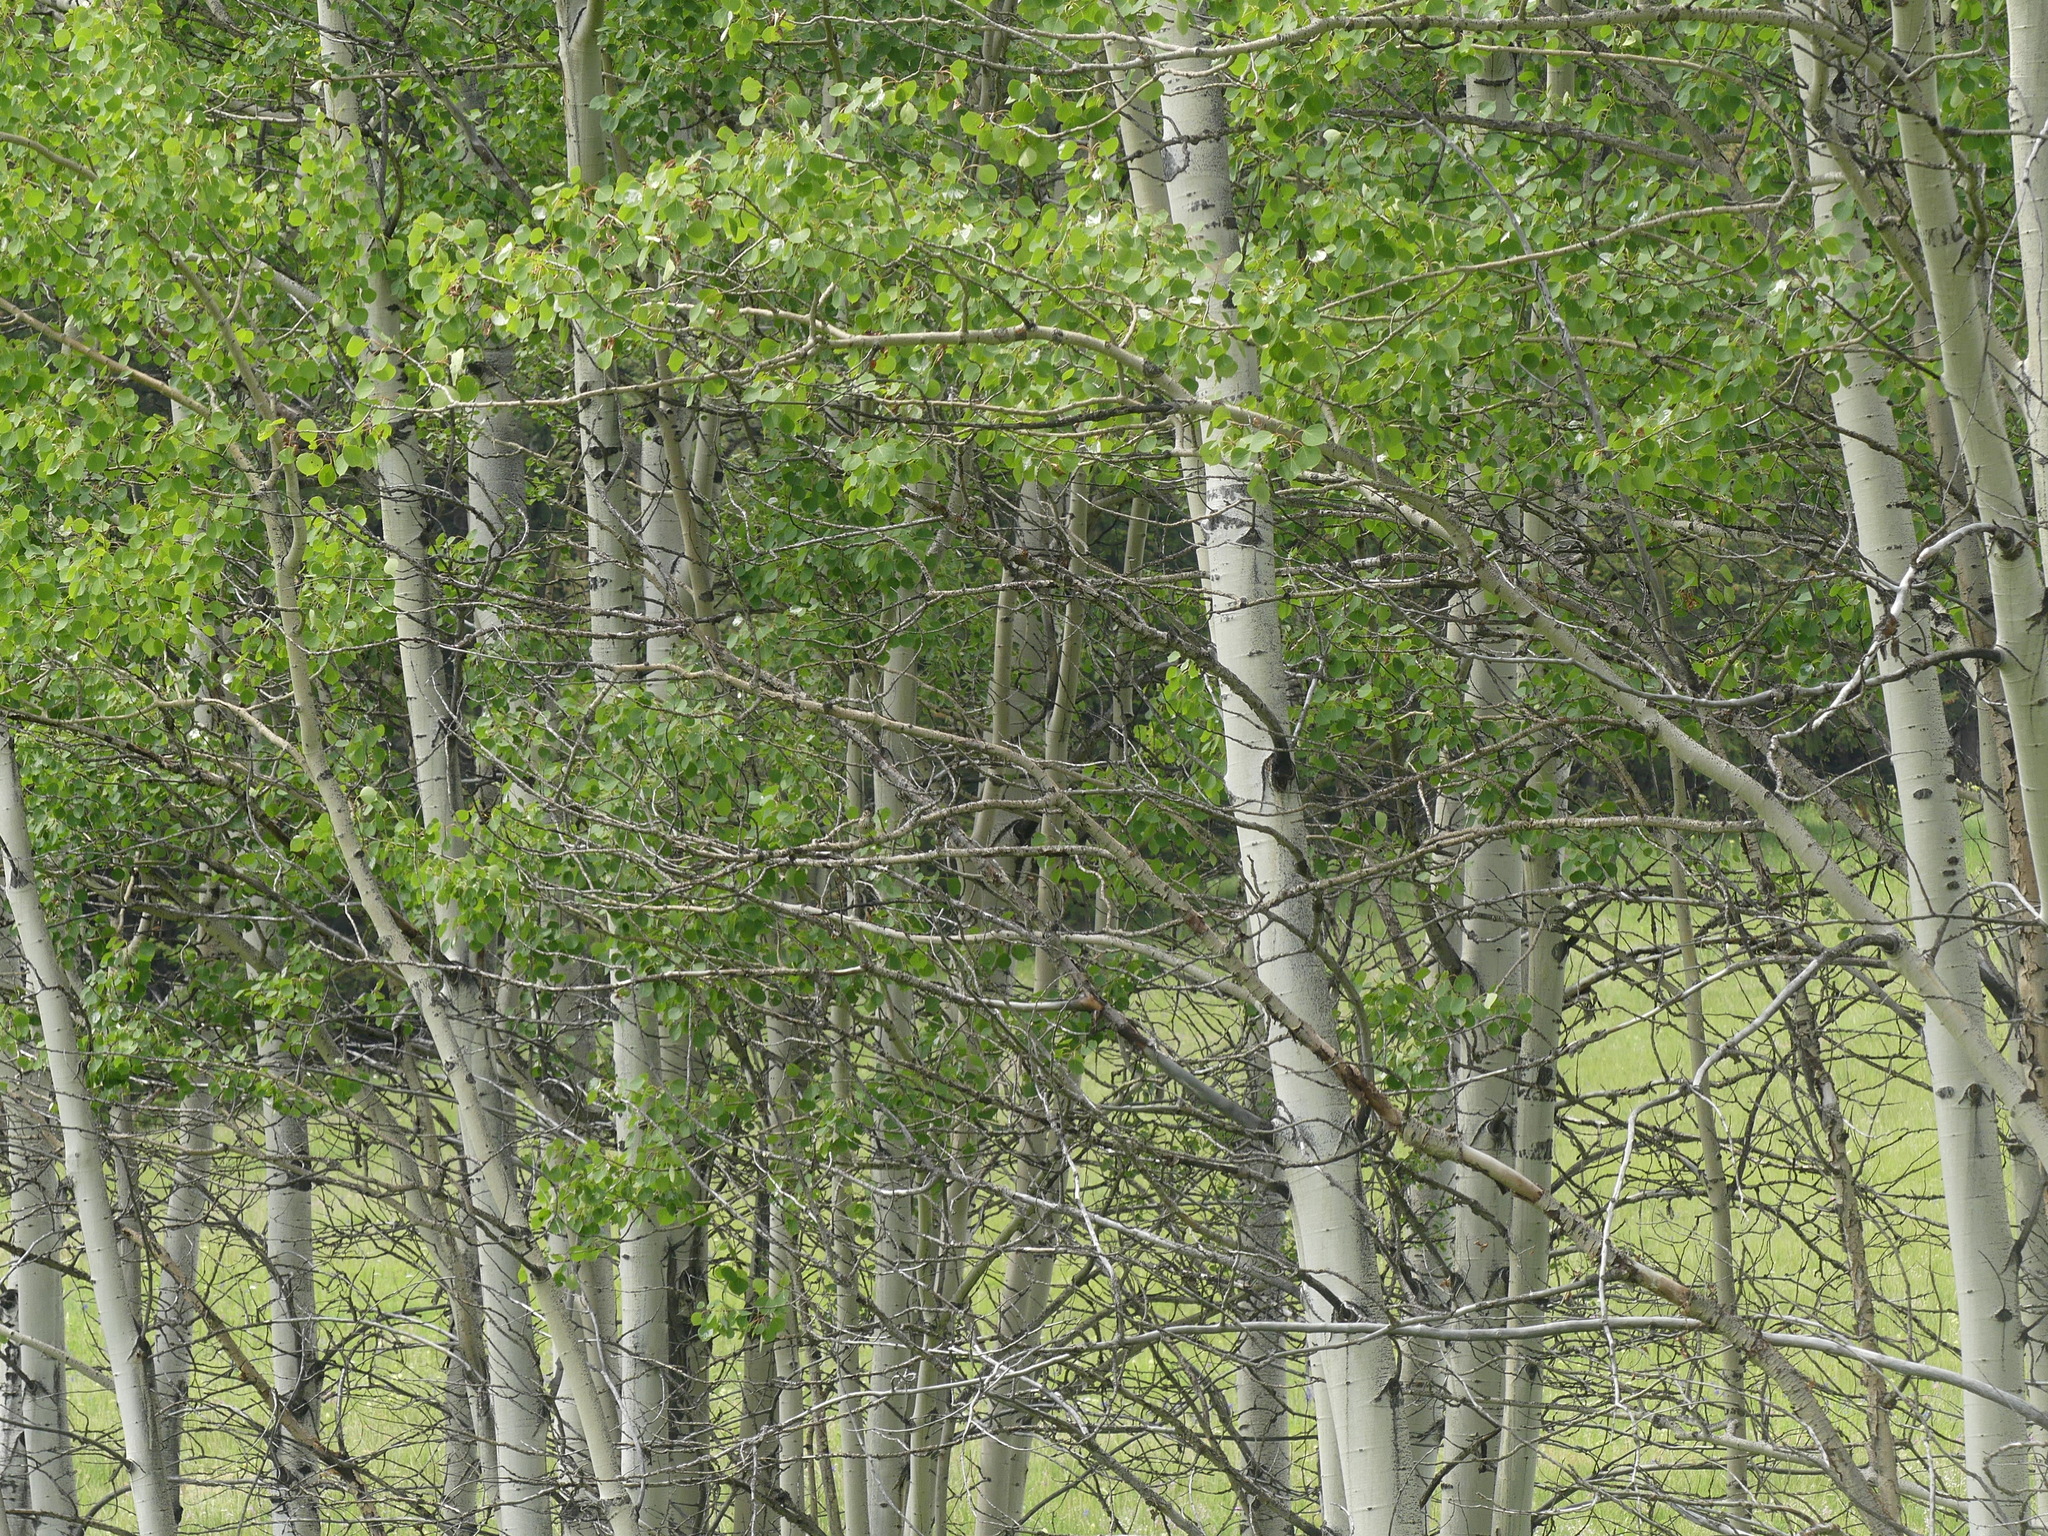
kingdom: Plantae
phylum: Tracheophyta
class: Magnoliopsida
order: Malpighiales
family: Salicaceae
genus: Populus
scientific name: Populus tremuloides
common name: Quaking aspen
